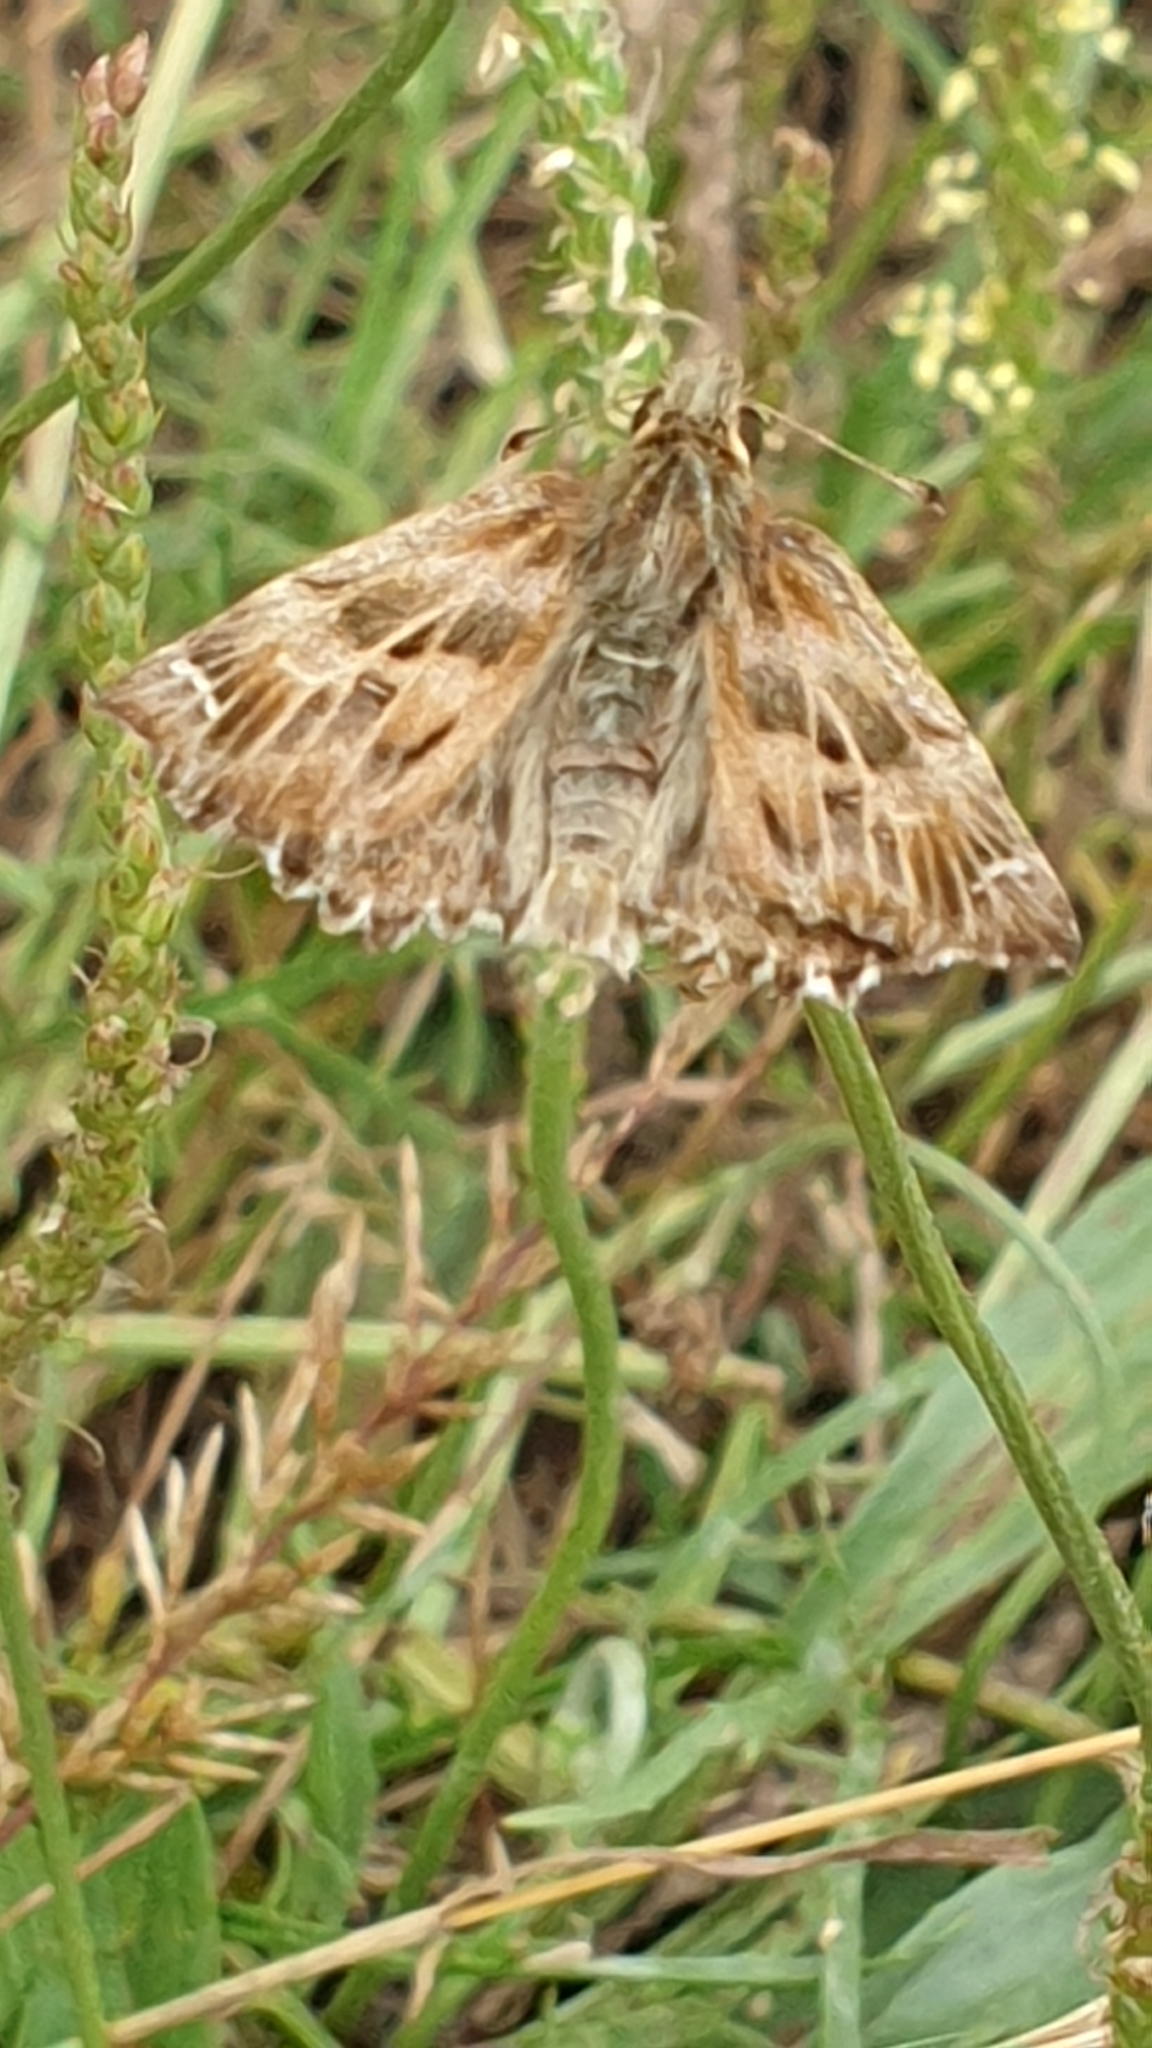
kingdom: Animalia
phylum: Arthropoda
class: Insecta
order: Lepidoptera
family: Hesperiidae
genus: Carcharodus
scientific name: Carcharodus alceae
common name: Mallow skipper
